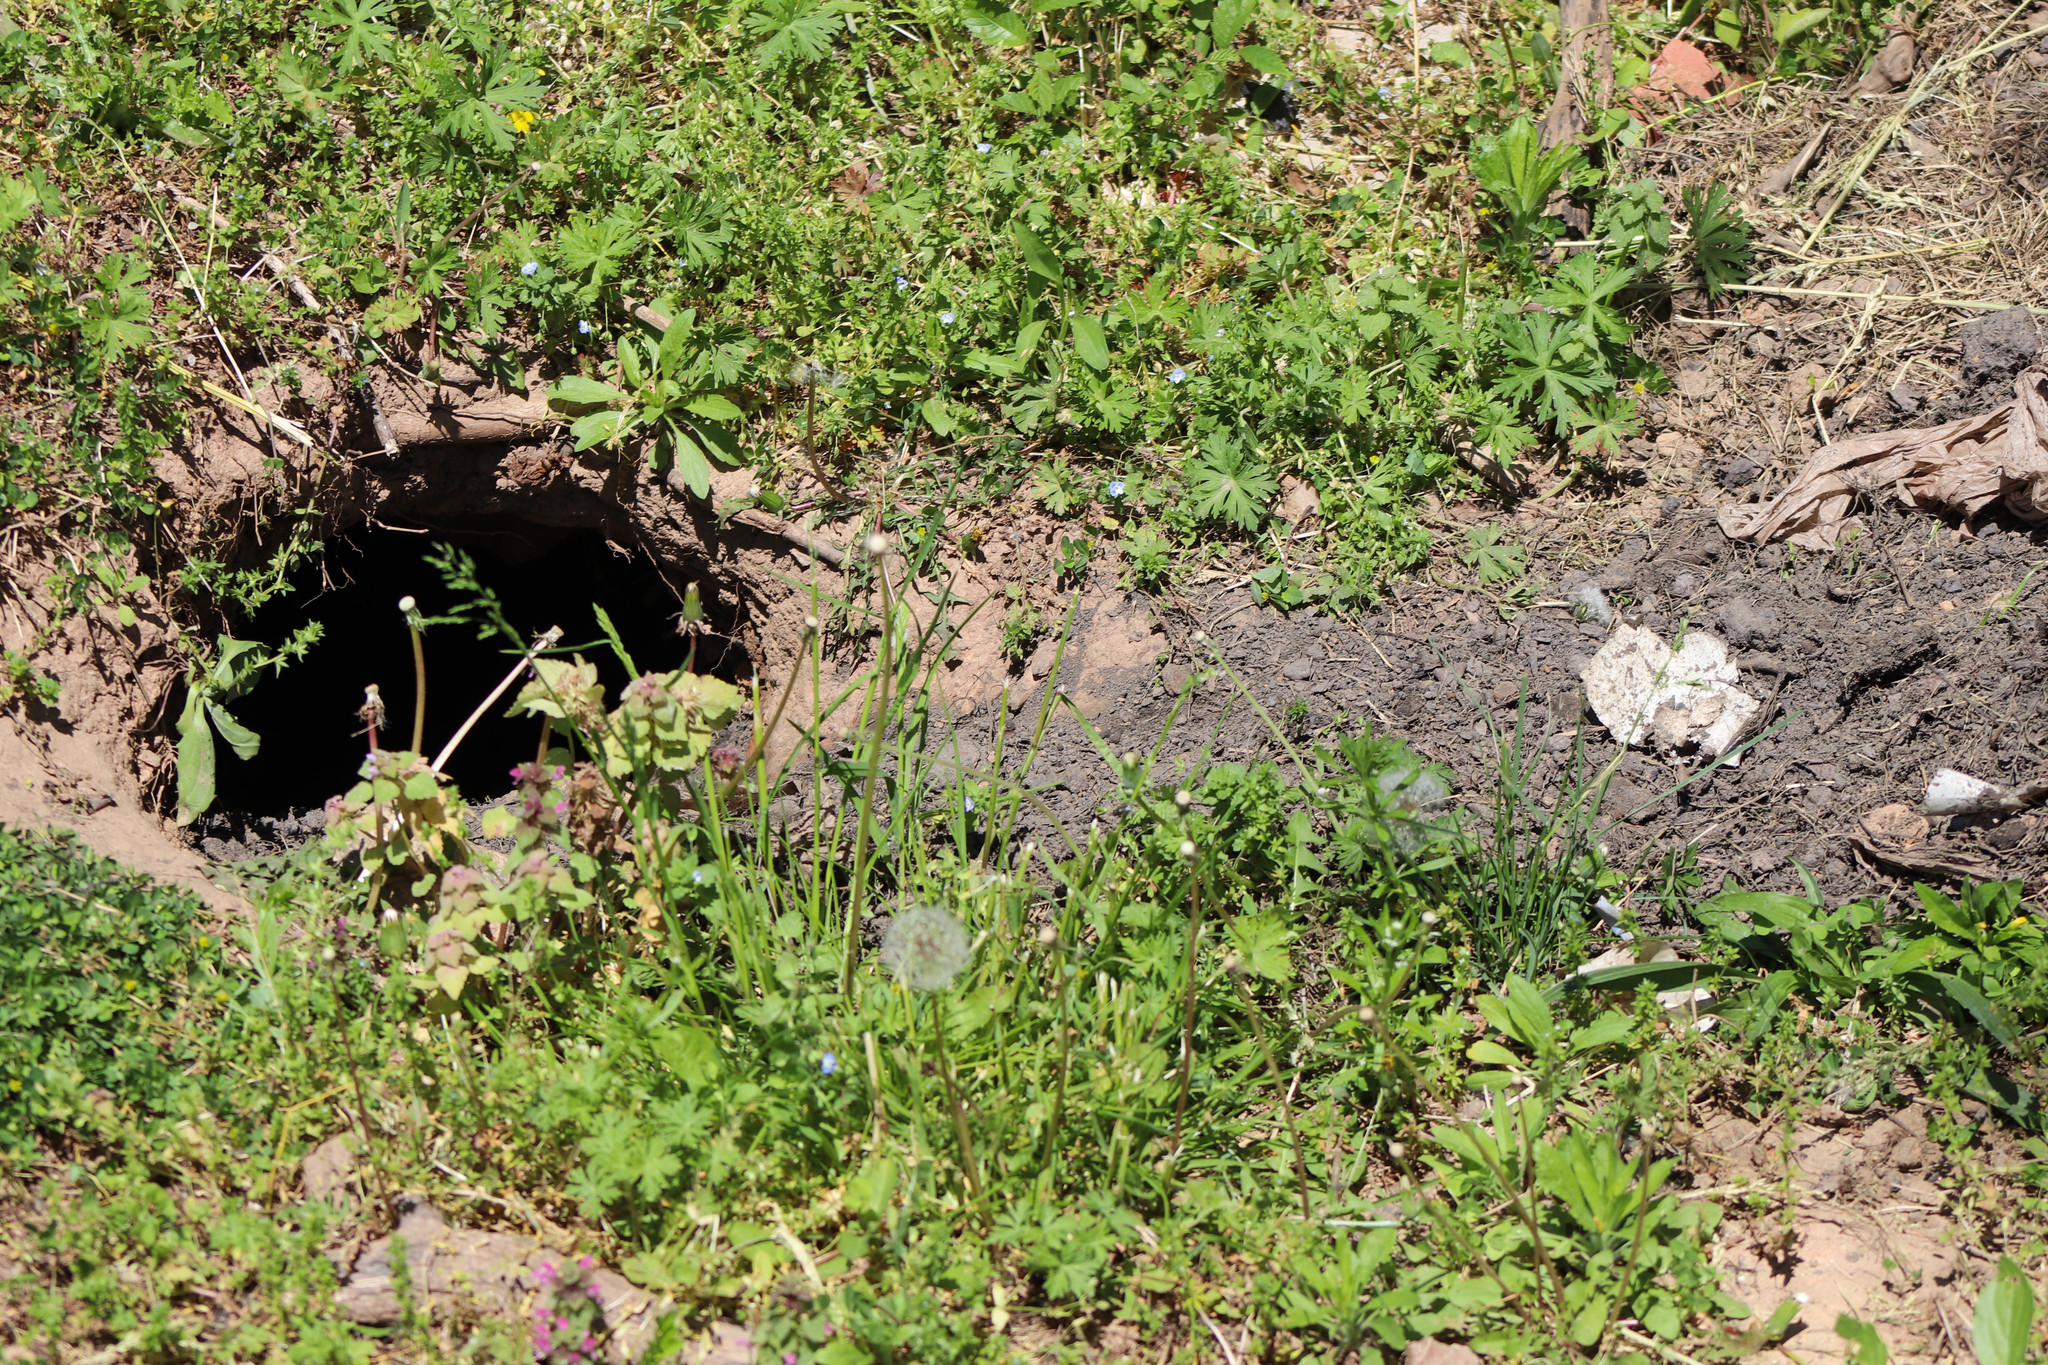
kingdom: Animalia
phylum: Chordata
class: Mammalia
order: Rodentia
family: Sciuridae
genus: Marmota
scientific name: Marmota monax
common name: Groundhog
